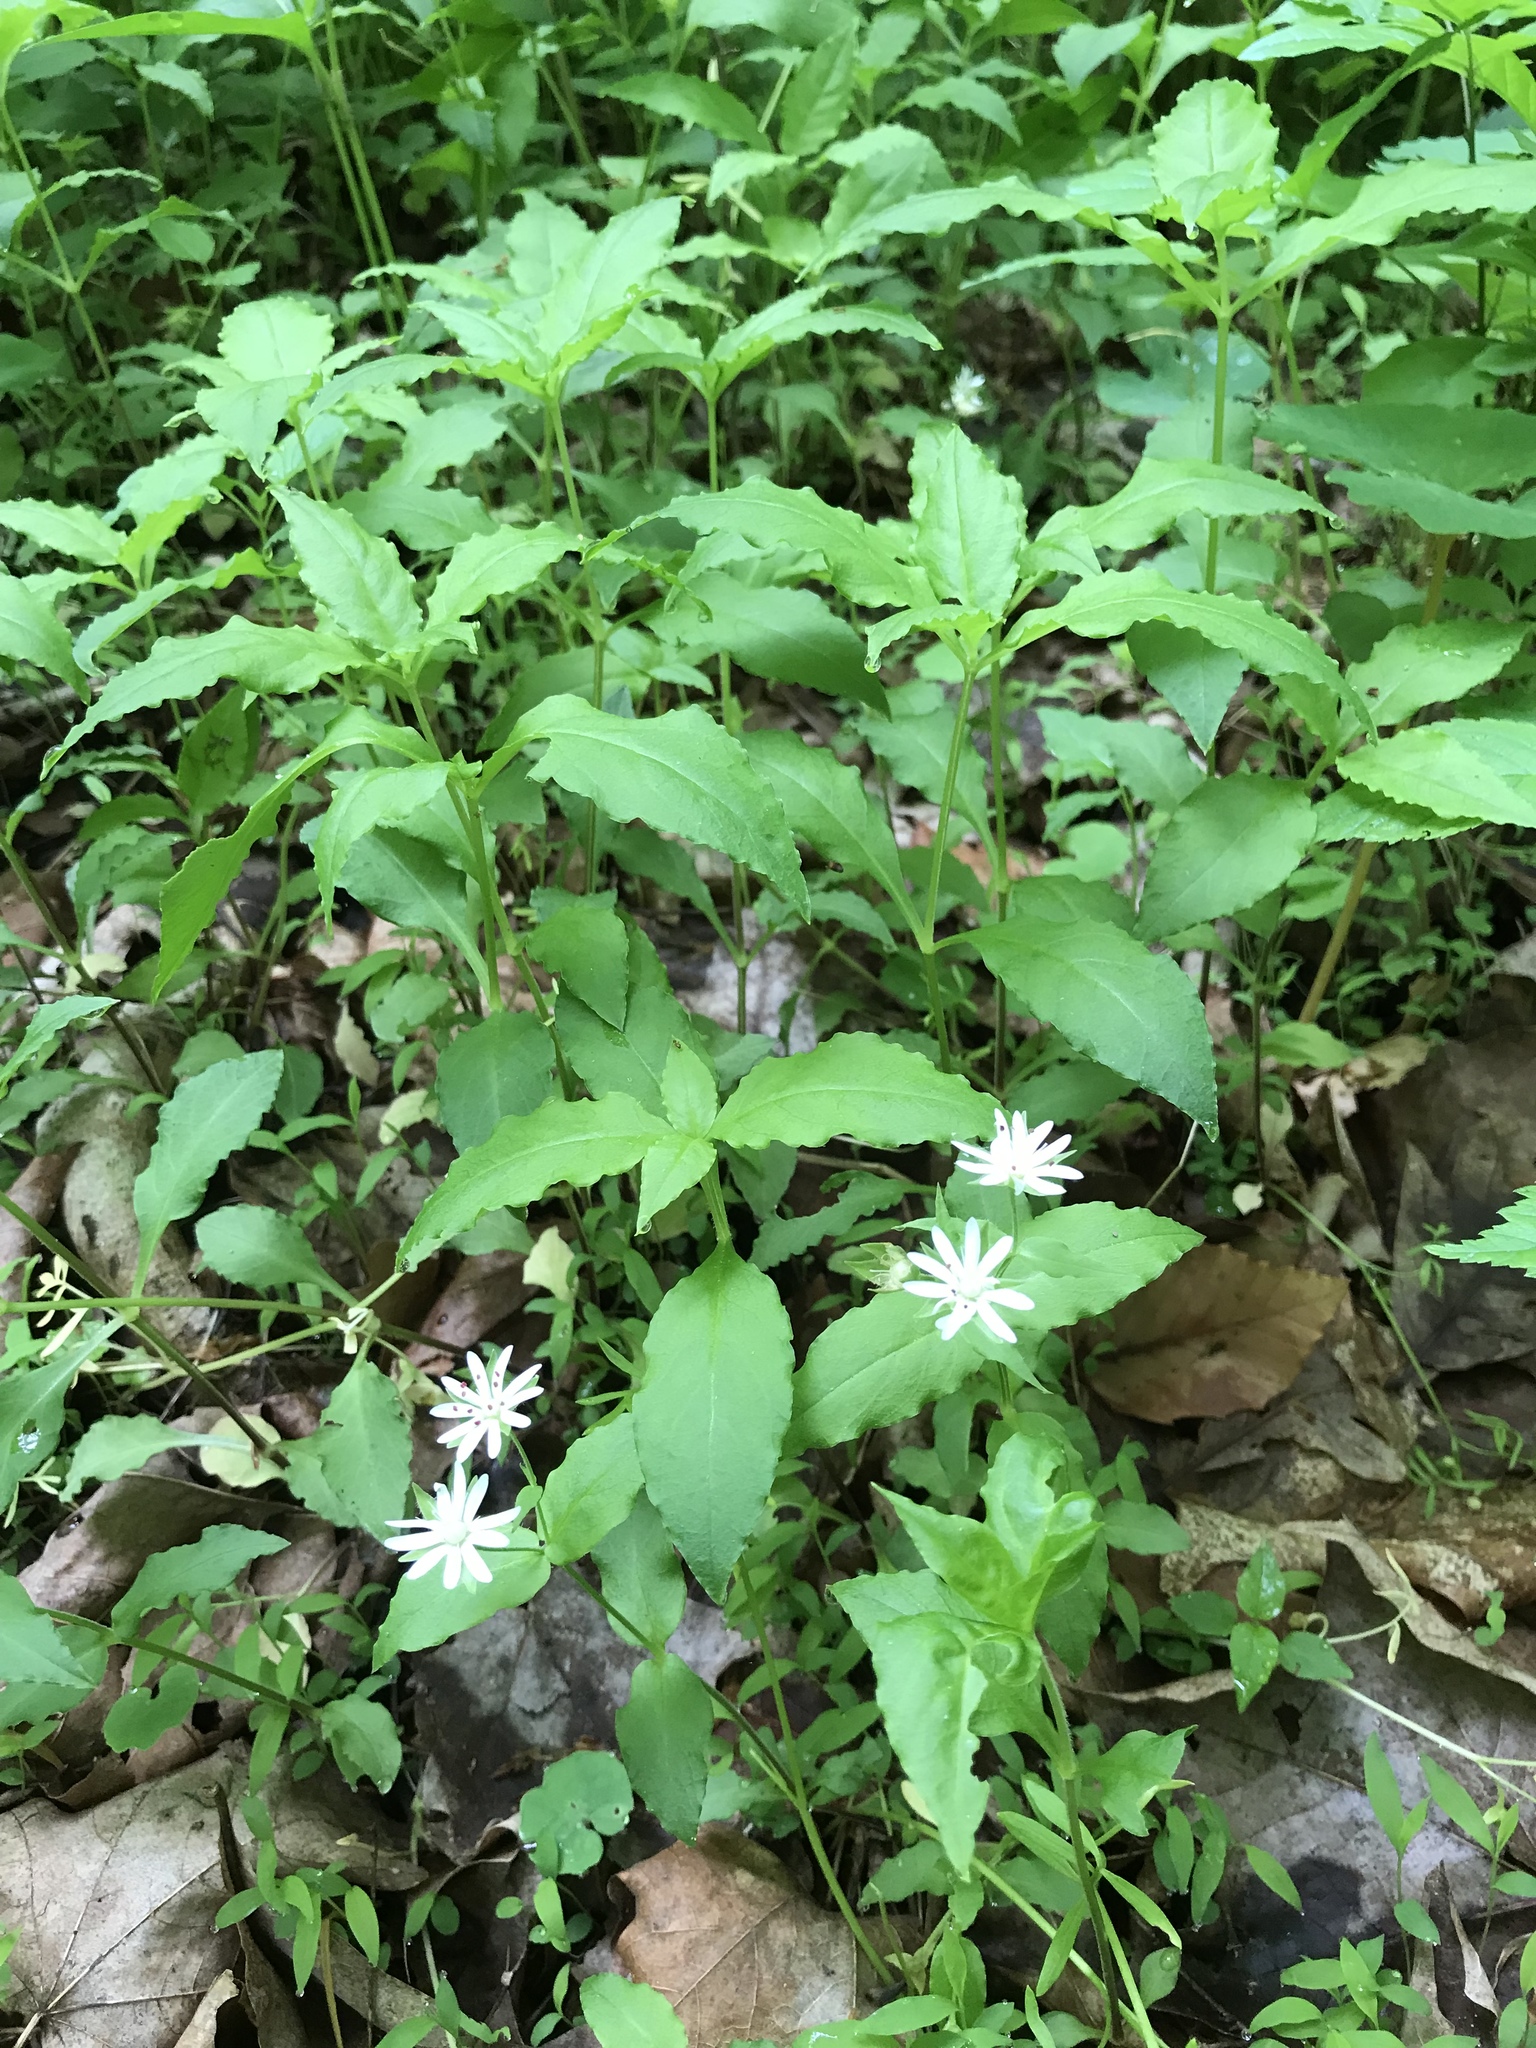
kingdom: Plantae
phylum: Tracheophyta
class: Magnoliopsida
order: Caryophyllales
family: Caryophyllaceae
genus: Stellaria
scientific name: Stellaria corei
